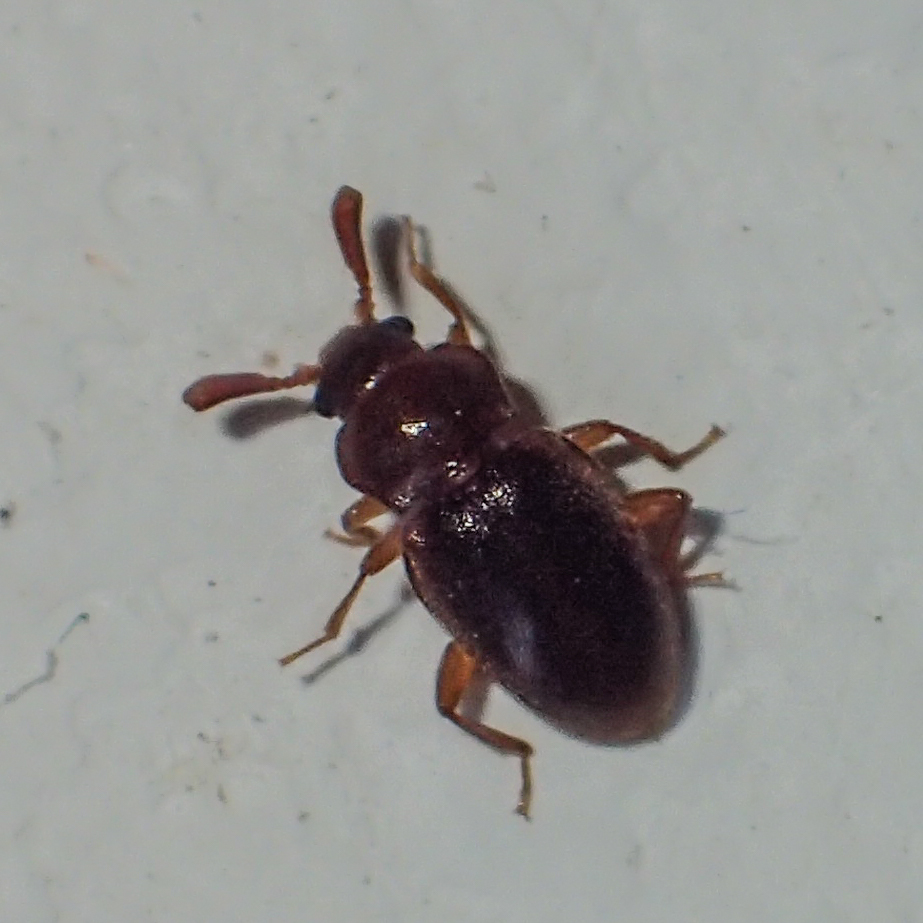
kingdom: Animalia
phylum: Arthropoda
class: Insecta
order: Coleoptera
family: Endomychidae
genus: Trochoideus
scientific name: Trochoideus desjardinsi
